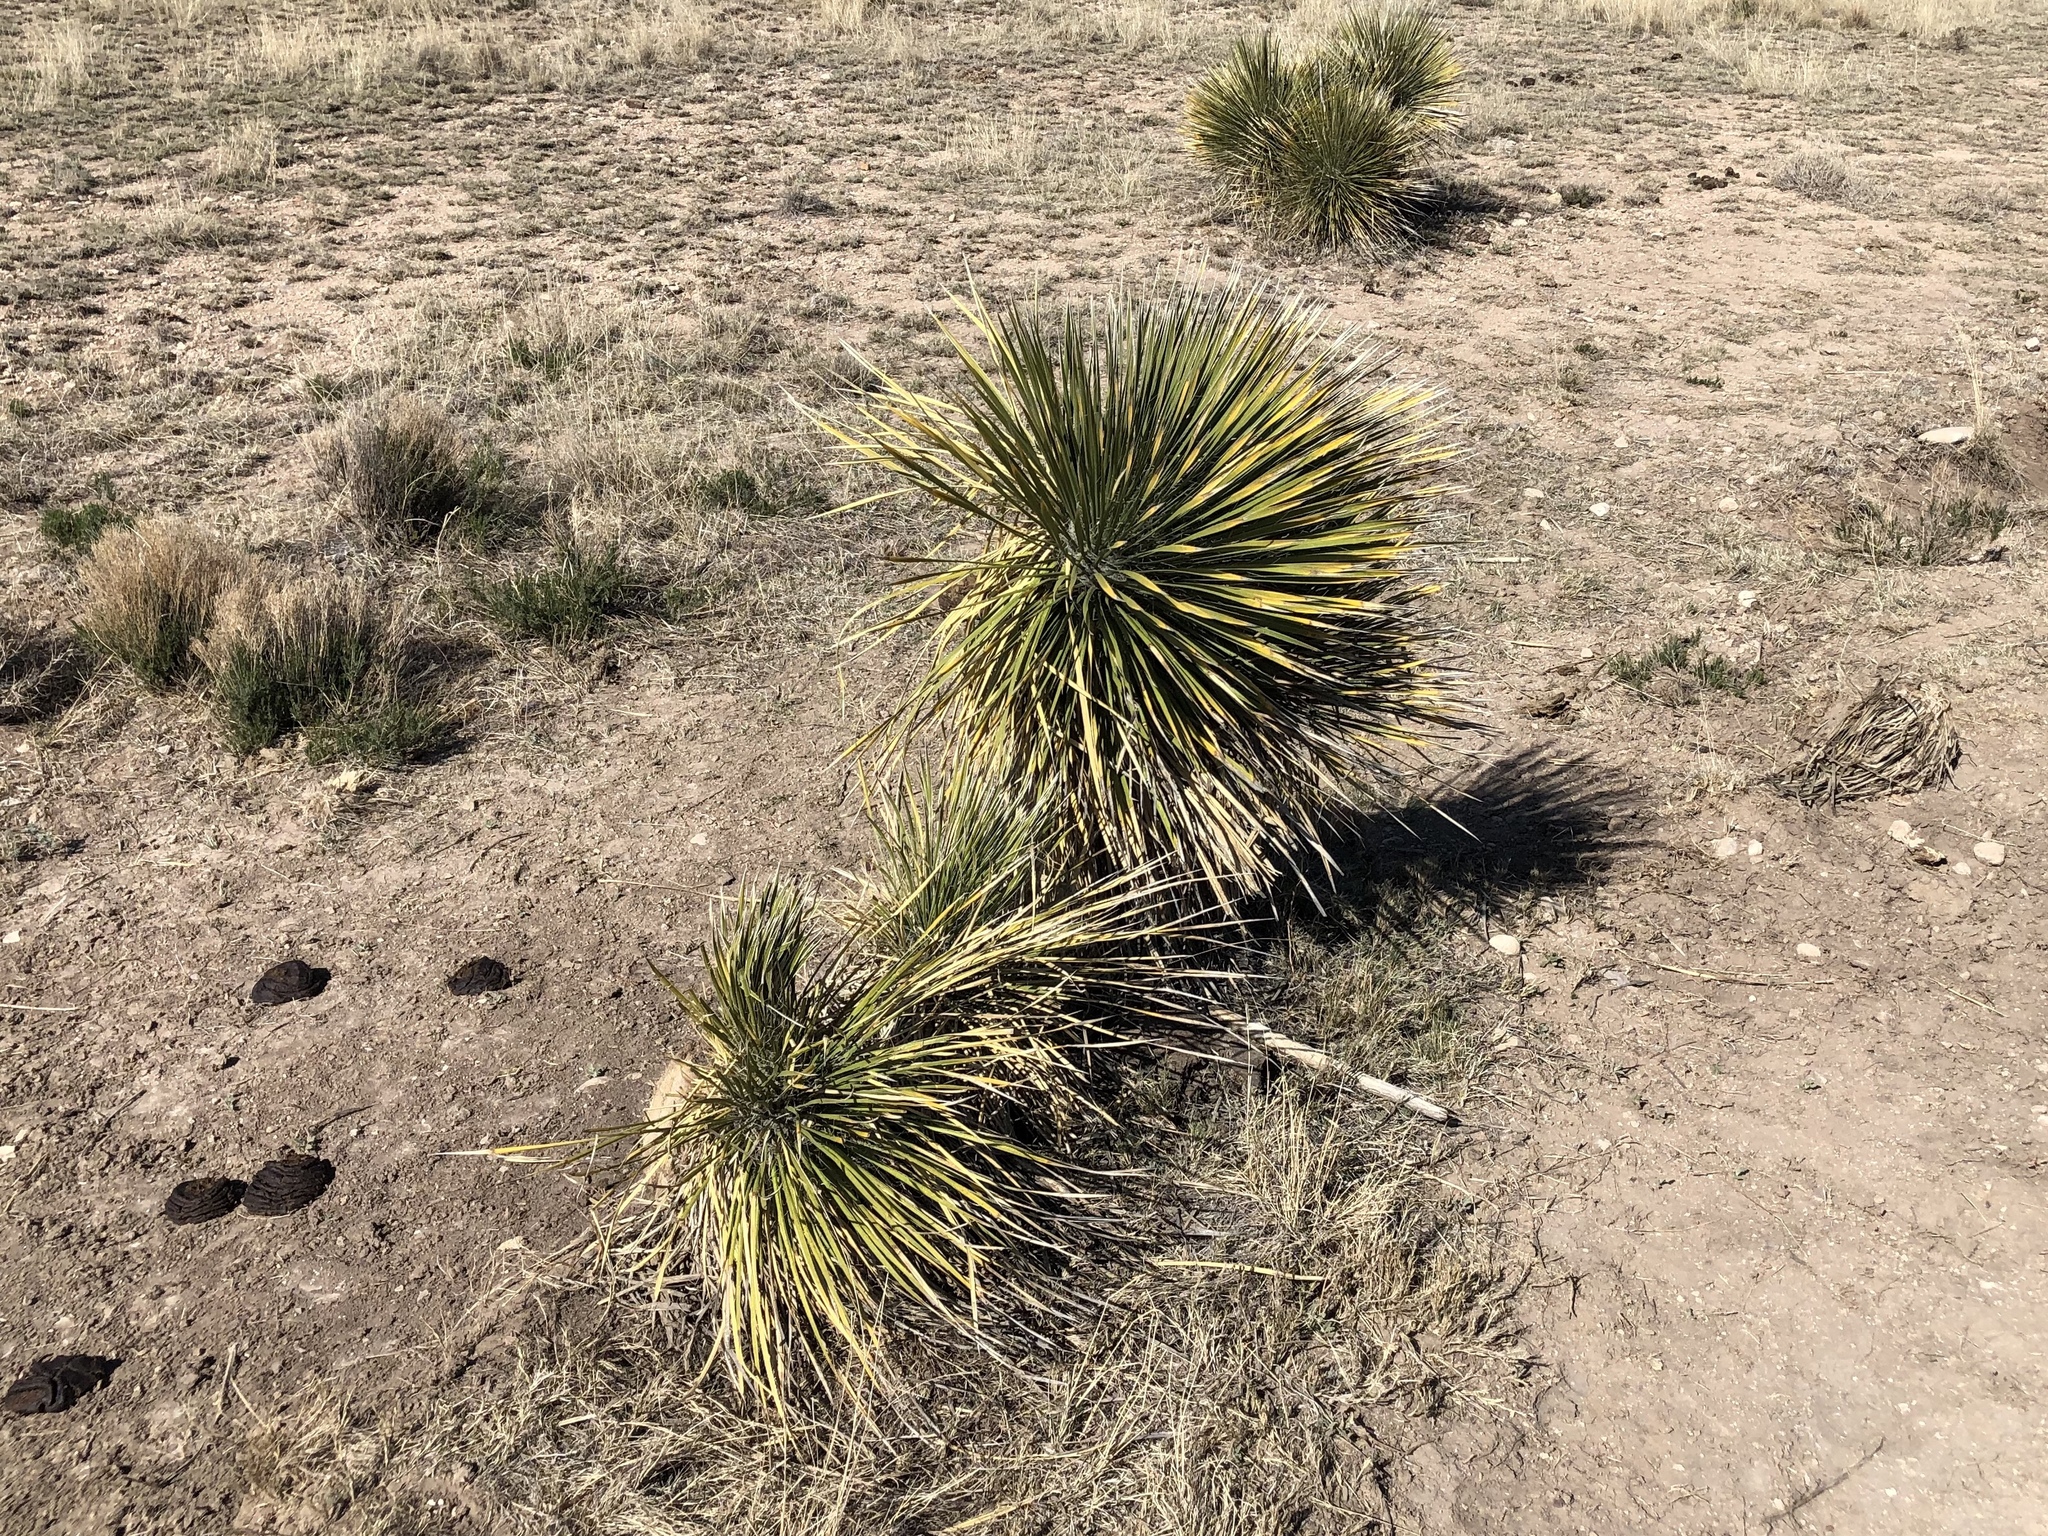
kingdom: Plantae
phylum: Tracheophyta
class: Liliopsida
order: Asparagales
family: Asparagaceae
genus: Yucca
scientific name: Yucca elata
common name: Palmella
